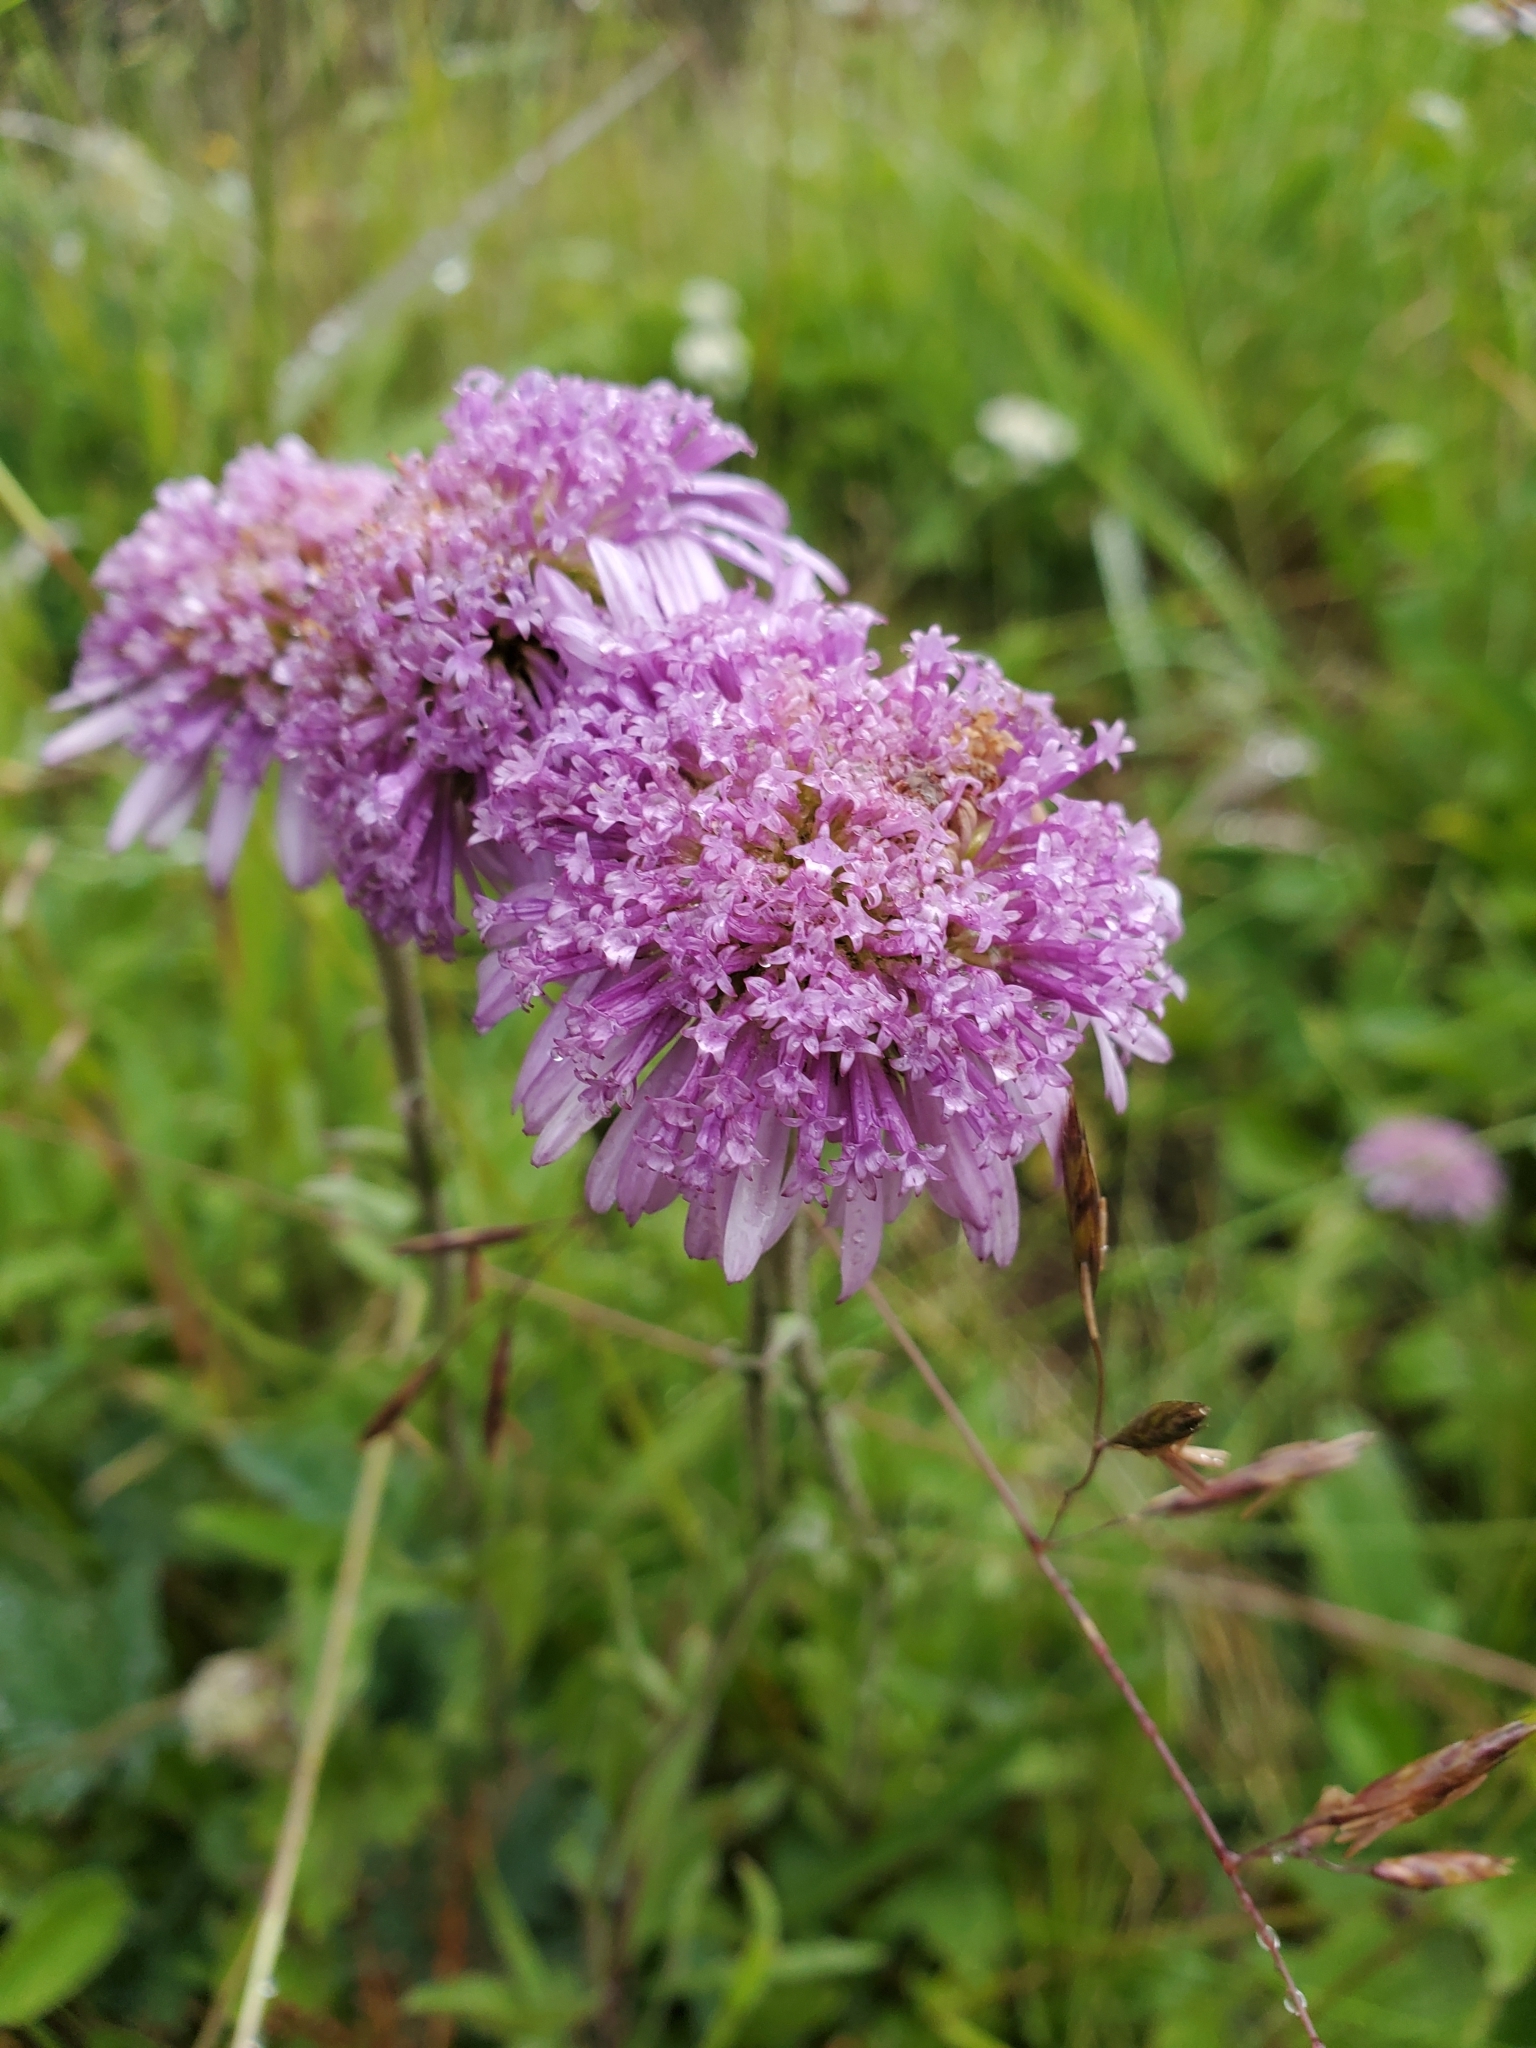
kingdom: Plantae
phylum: Tracheophyta
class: Magnoliopsida
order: Dipsacales
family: Caprifoliaceae
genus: Knautia
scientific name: Knautia arvensis
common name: Field scabiosa
